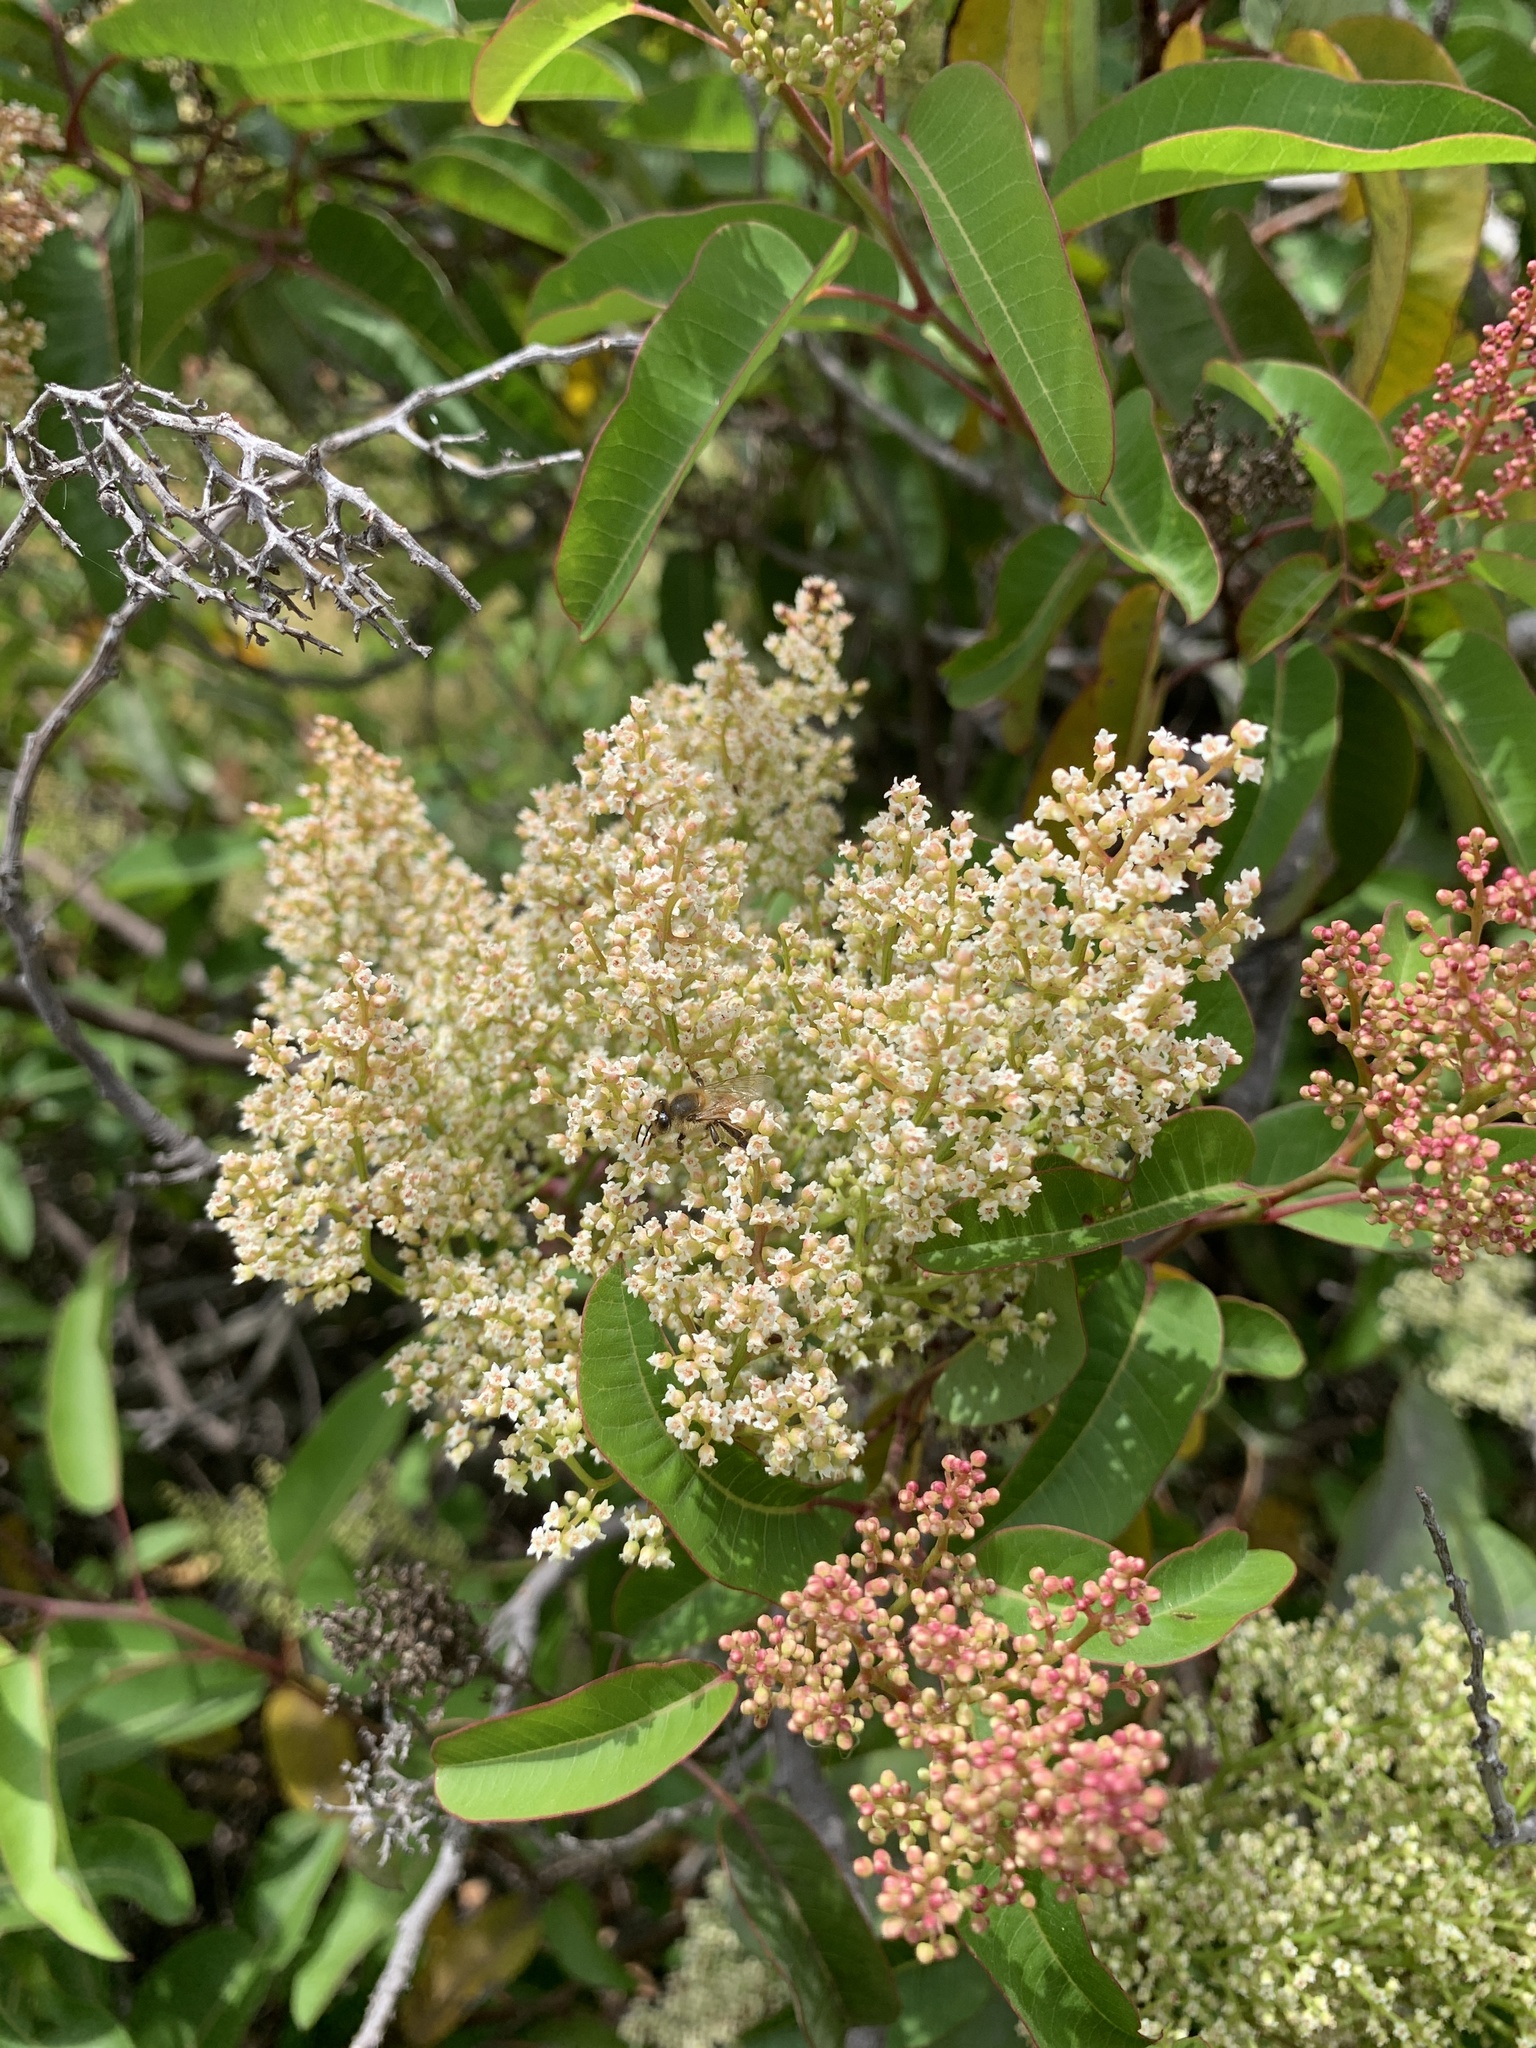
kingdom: Plantae
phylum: Tracheophyta
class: Magnoliopsida
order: Sapindales
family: Anacardiaceae
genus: Malosma
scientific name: Malosma laurina
